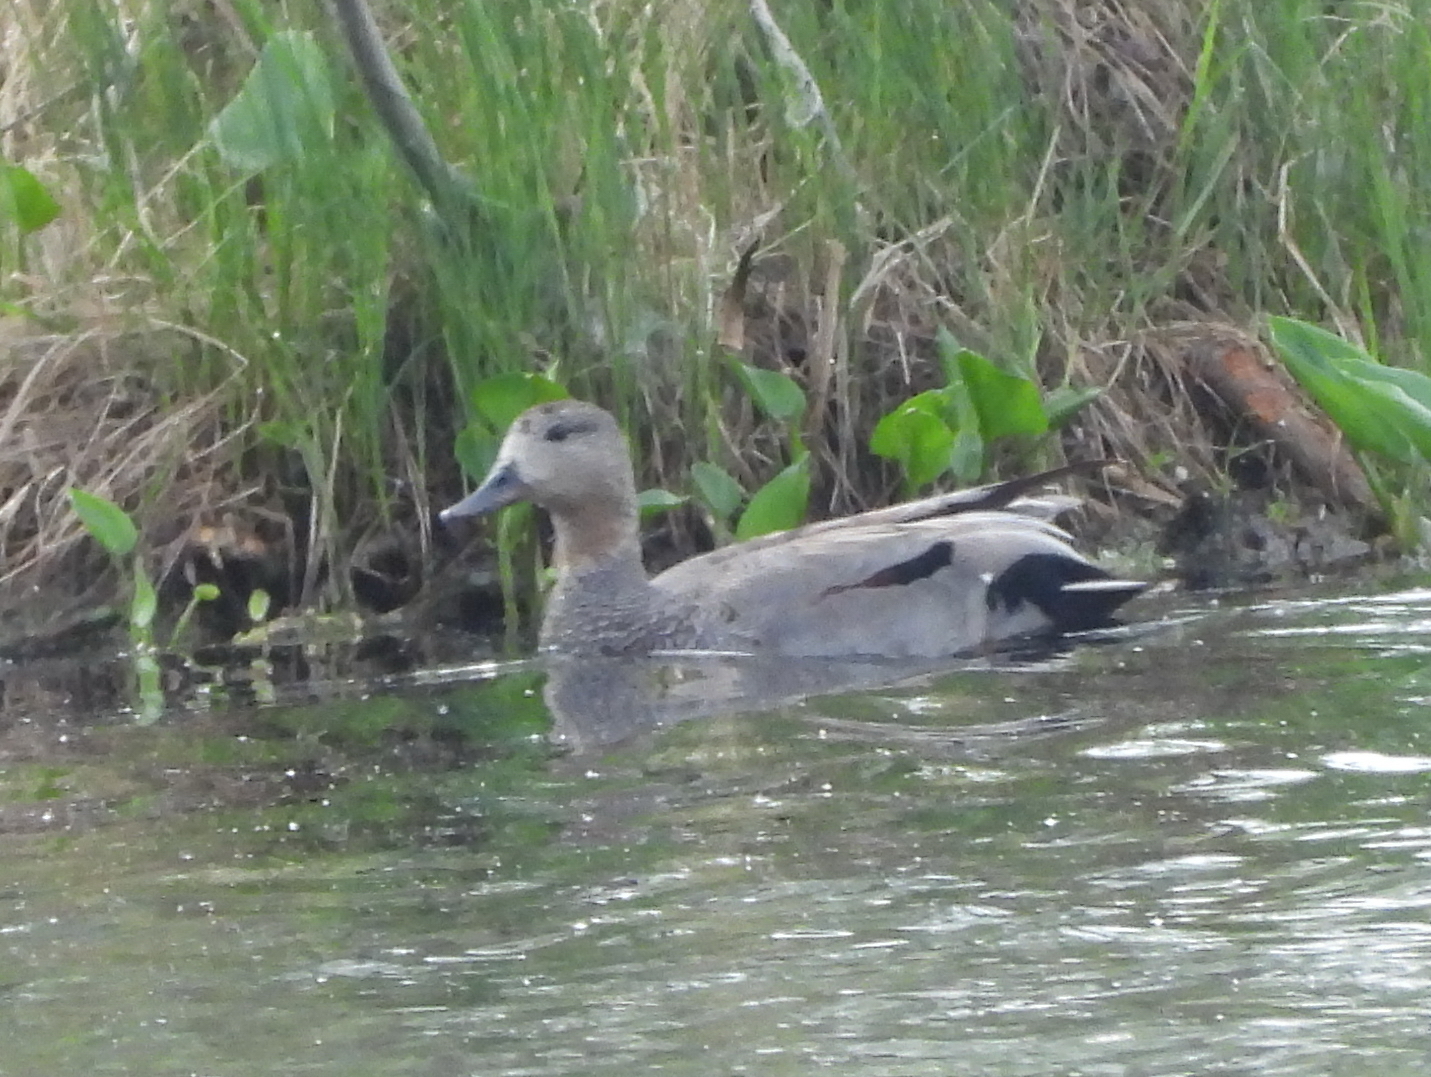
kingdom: Animalia
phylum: Chordata
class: Aves
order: Anseriformes
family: Anatidae
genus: Mareca
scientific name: Mareca strepera
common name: Gadwall
